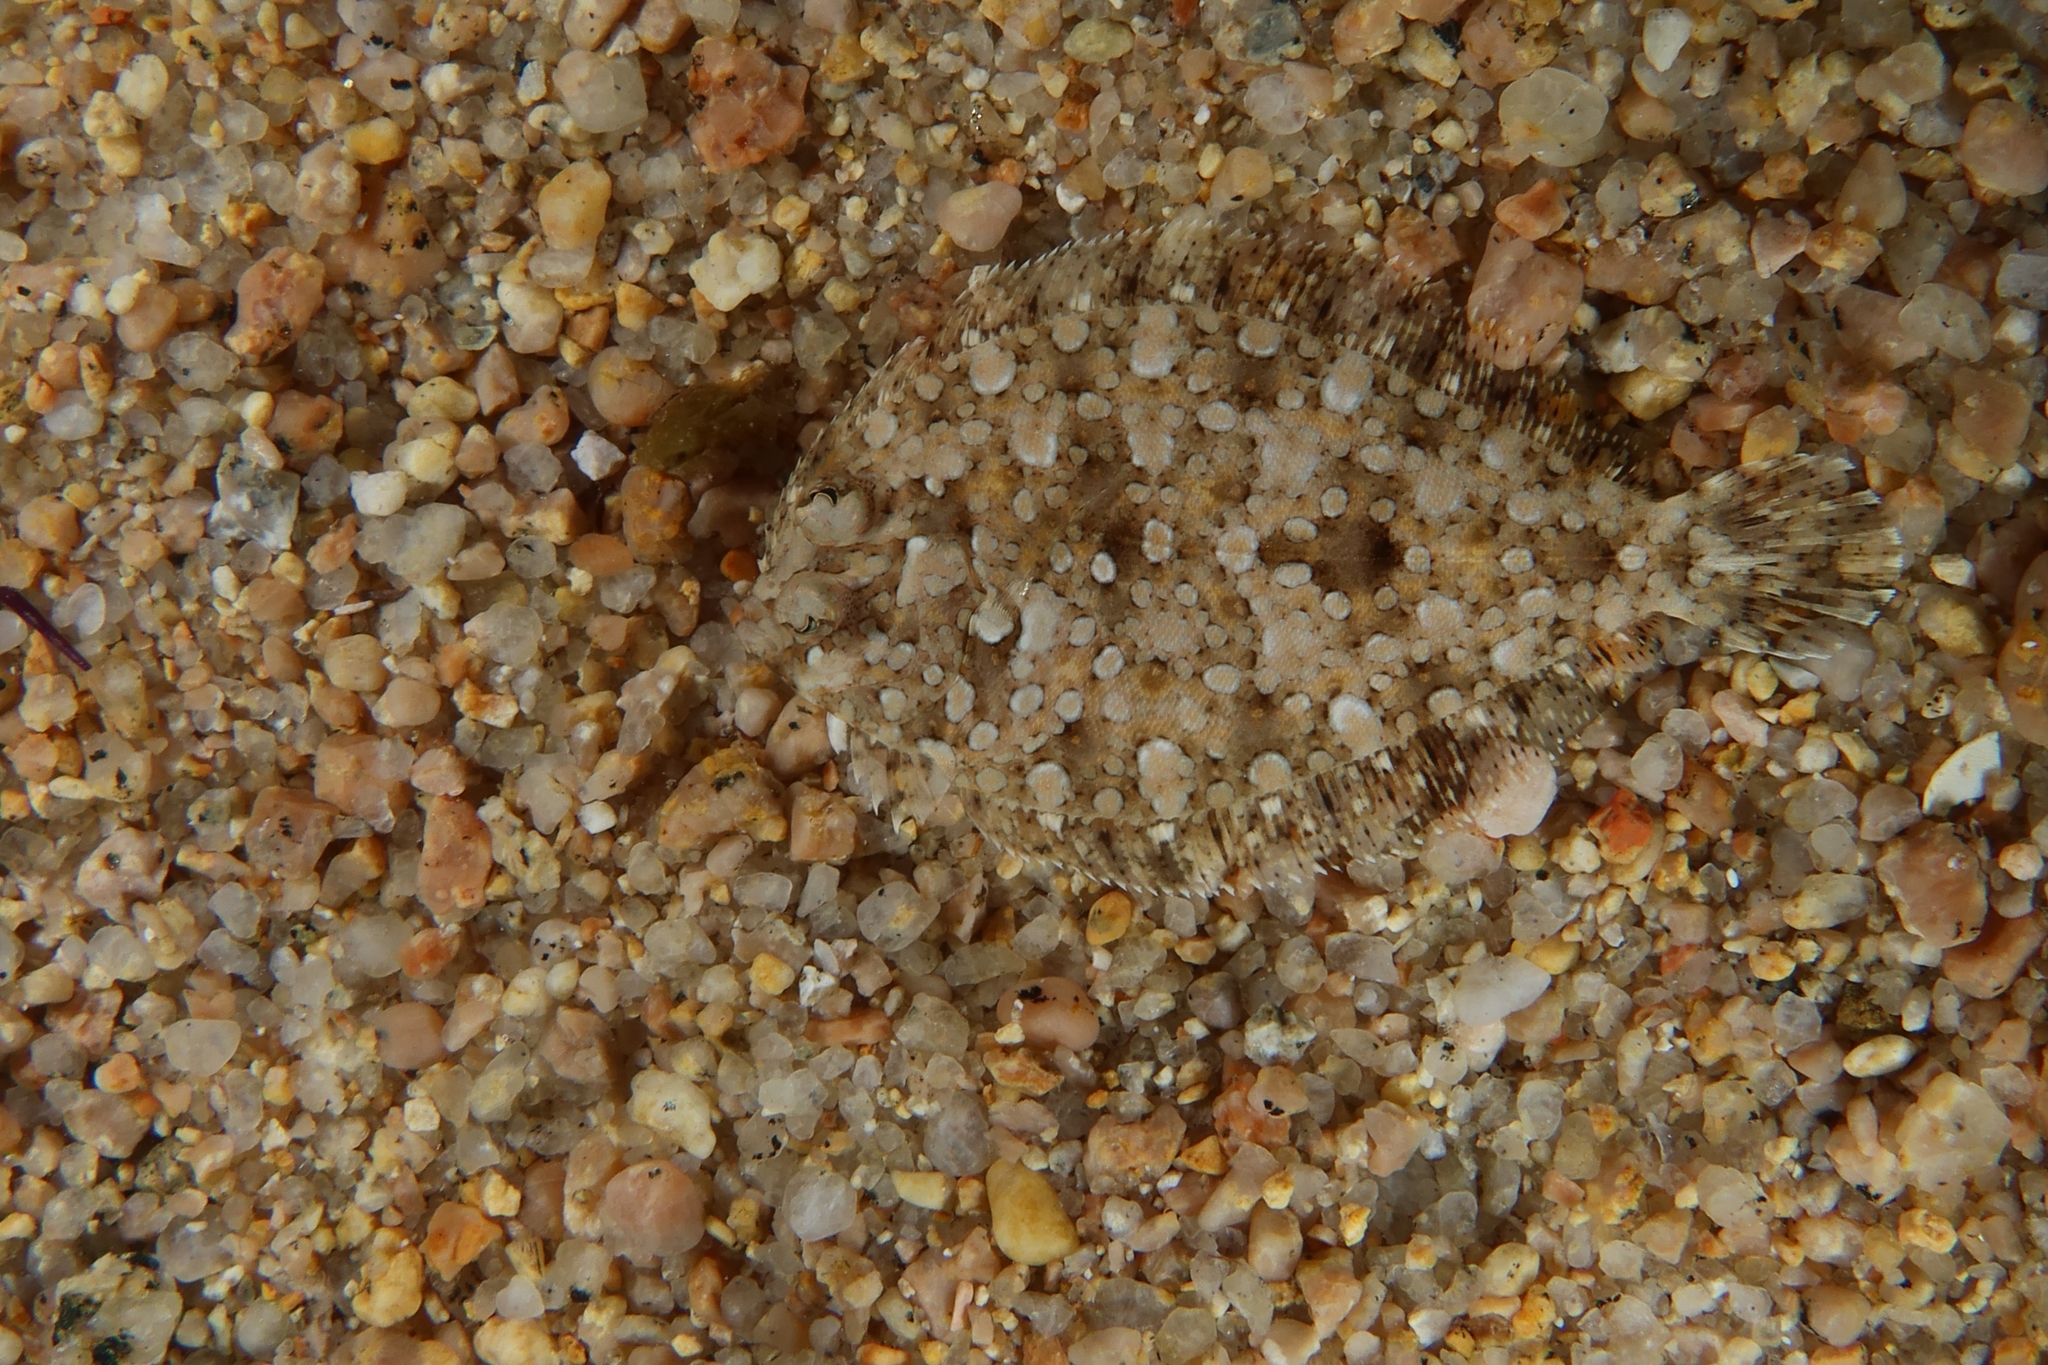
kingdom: Animalia
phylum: Chordata
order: Pleuronectiformes
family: Bothidae
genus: Bothus
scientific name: Bothus podas
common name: Wide-eyed flounder
